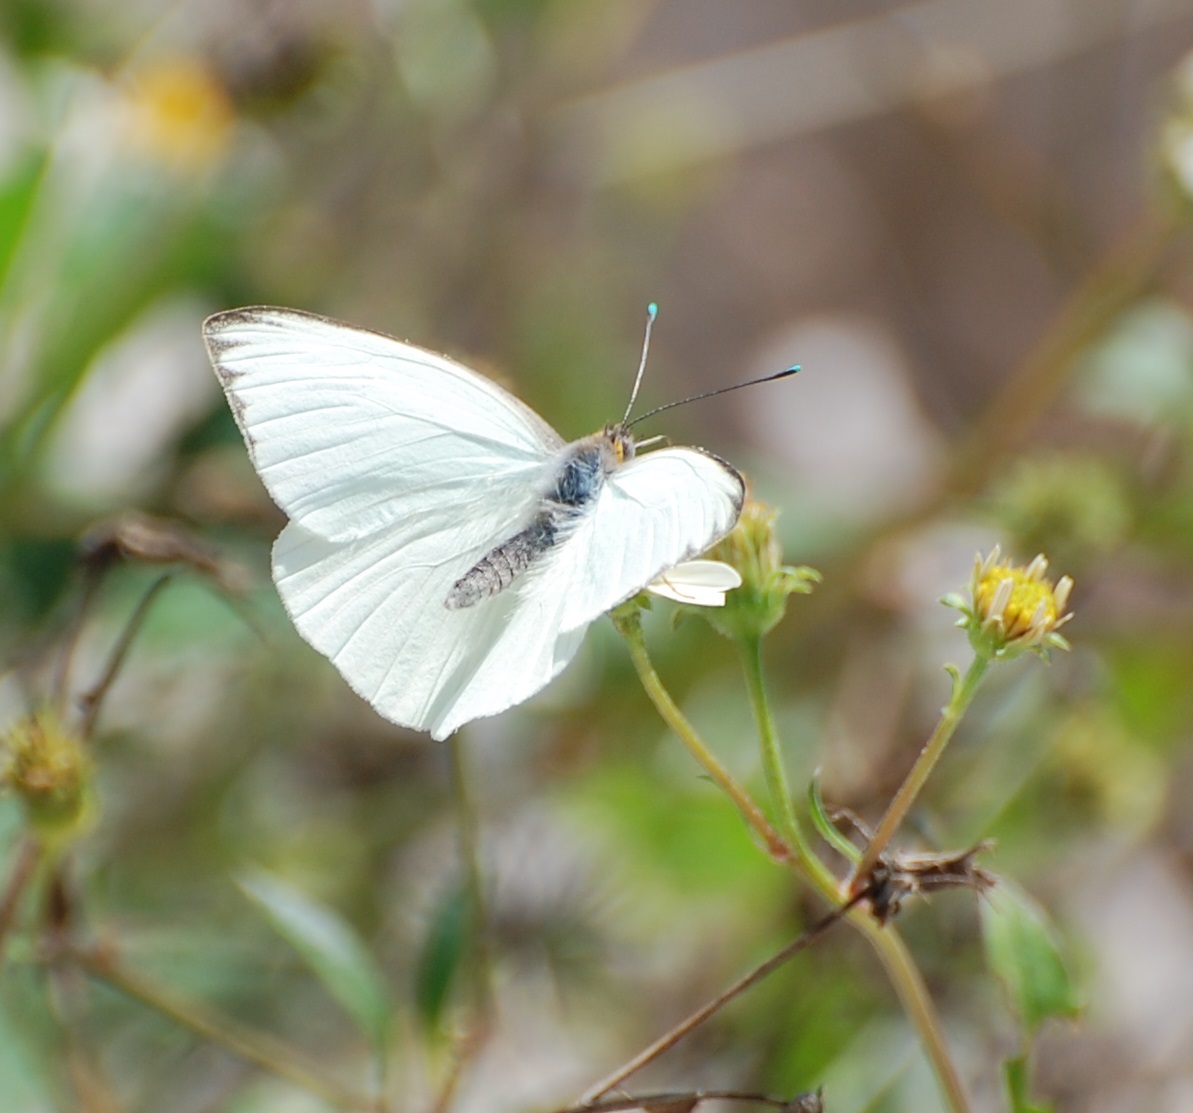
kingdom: Animalia
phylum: Arthropoda
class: Insecta
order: Lepidoptera
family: Pieridae
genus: Ascia
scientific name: Ascia monuste
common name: Great southern white
